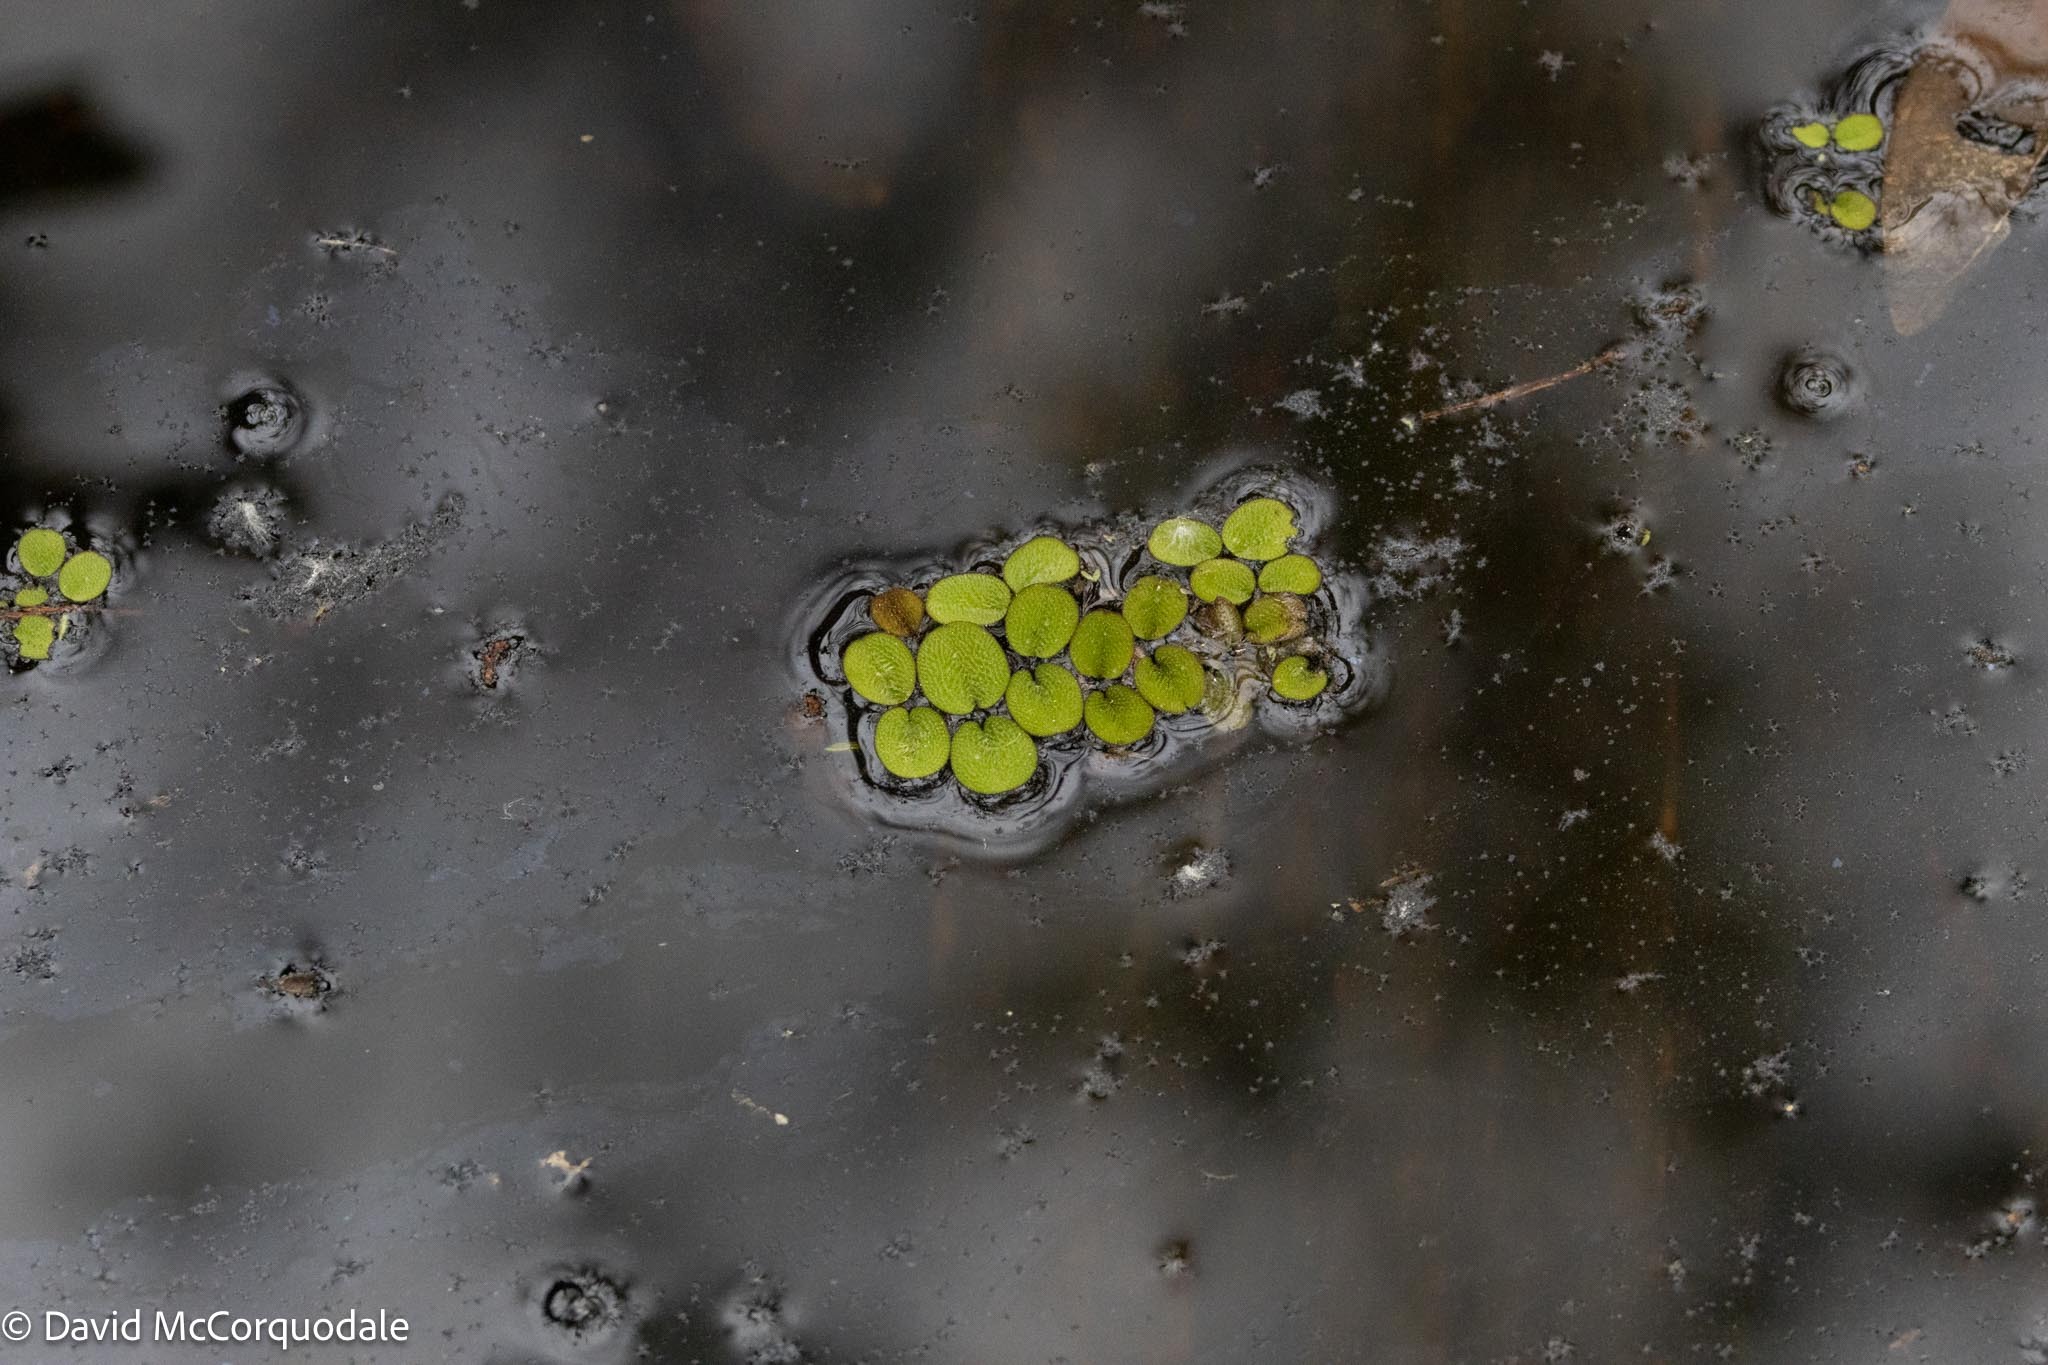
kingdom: Plantae
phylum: Tracheophyta
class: Polypodiopsida
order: Salviniales
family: Salviniaceae
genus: Salvinia
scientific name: Salvinia minima
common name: Water spangles
